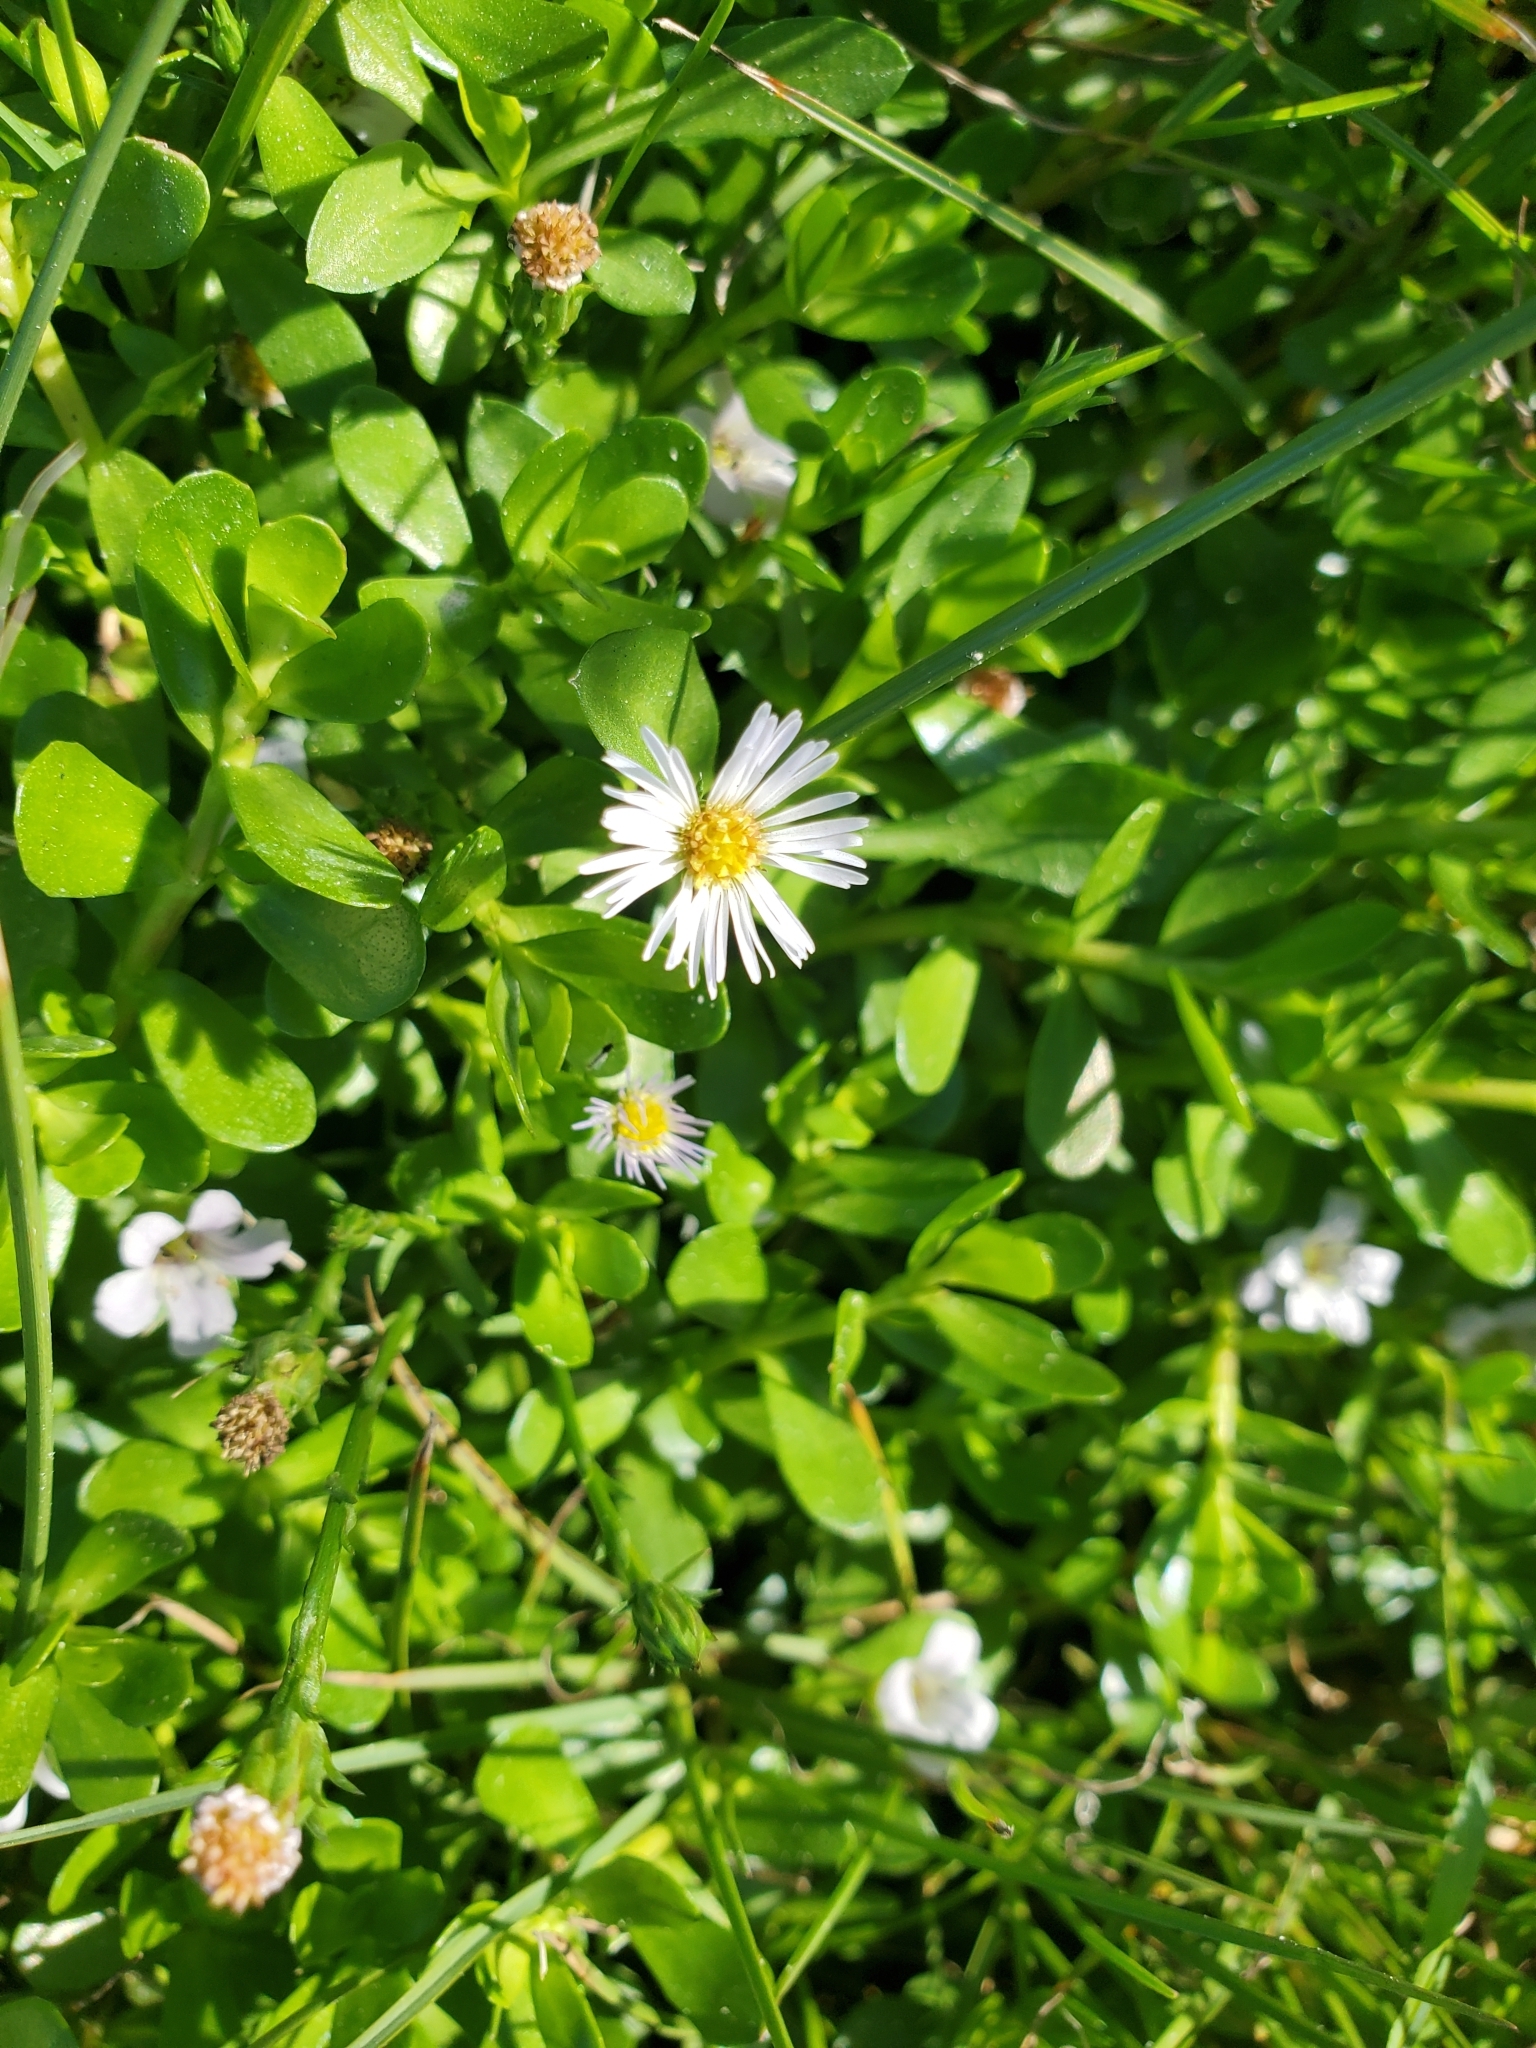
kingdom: Plantae
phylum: Tracheophyta
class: Magnoliopsida
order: Lamiales
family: Plantaginaceae
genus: Bacopa
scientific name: Bacopa monnieri
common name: Indian-pennywort
